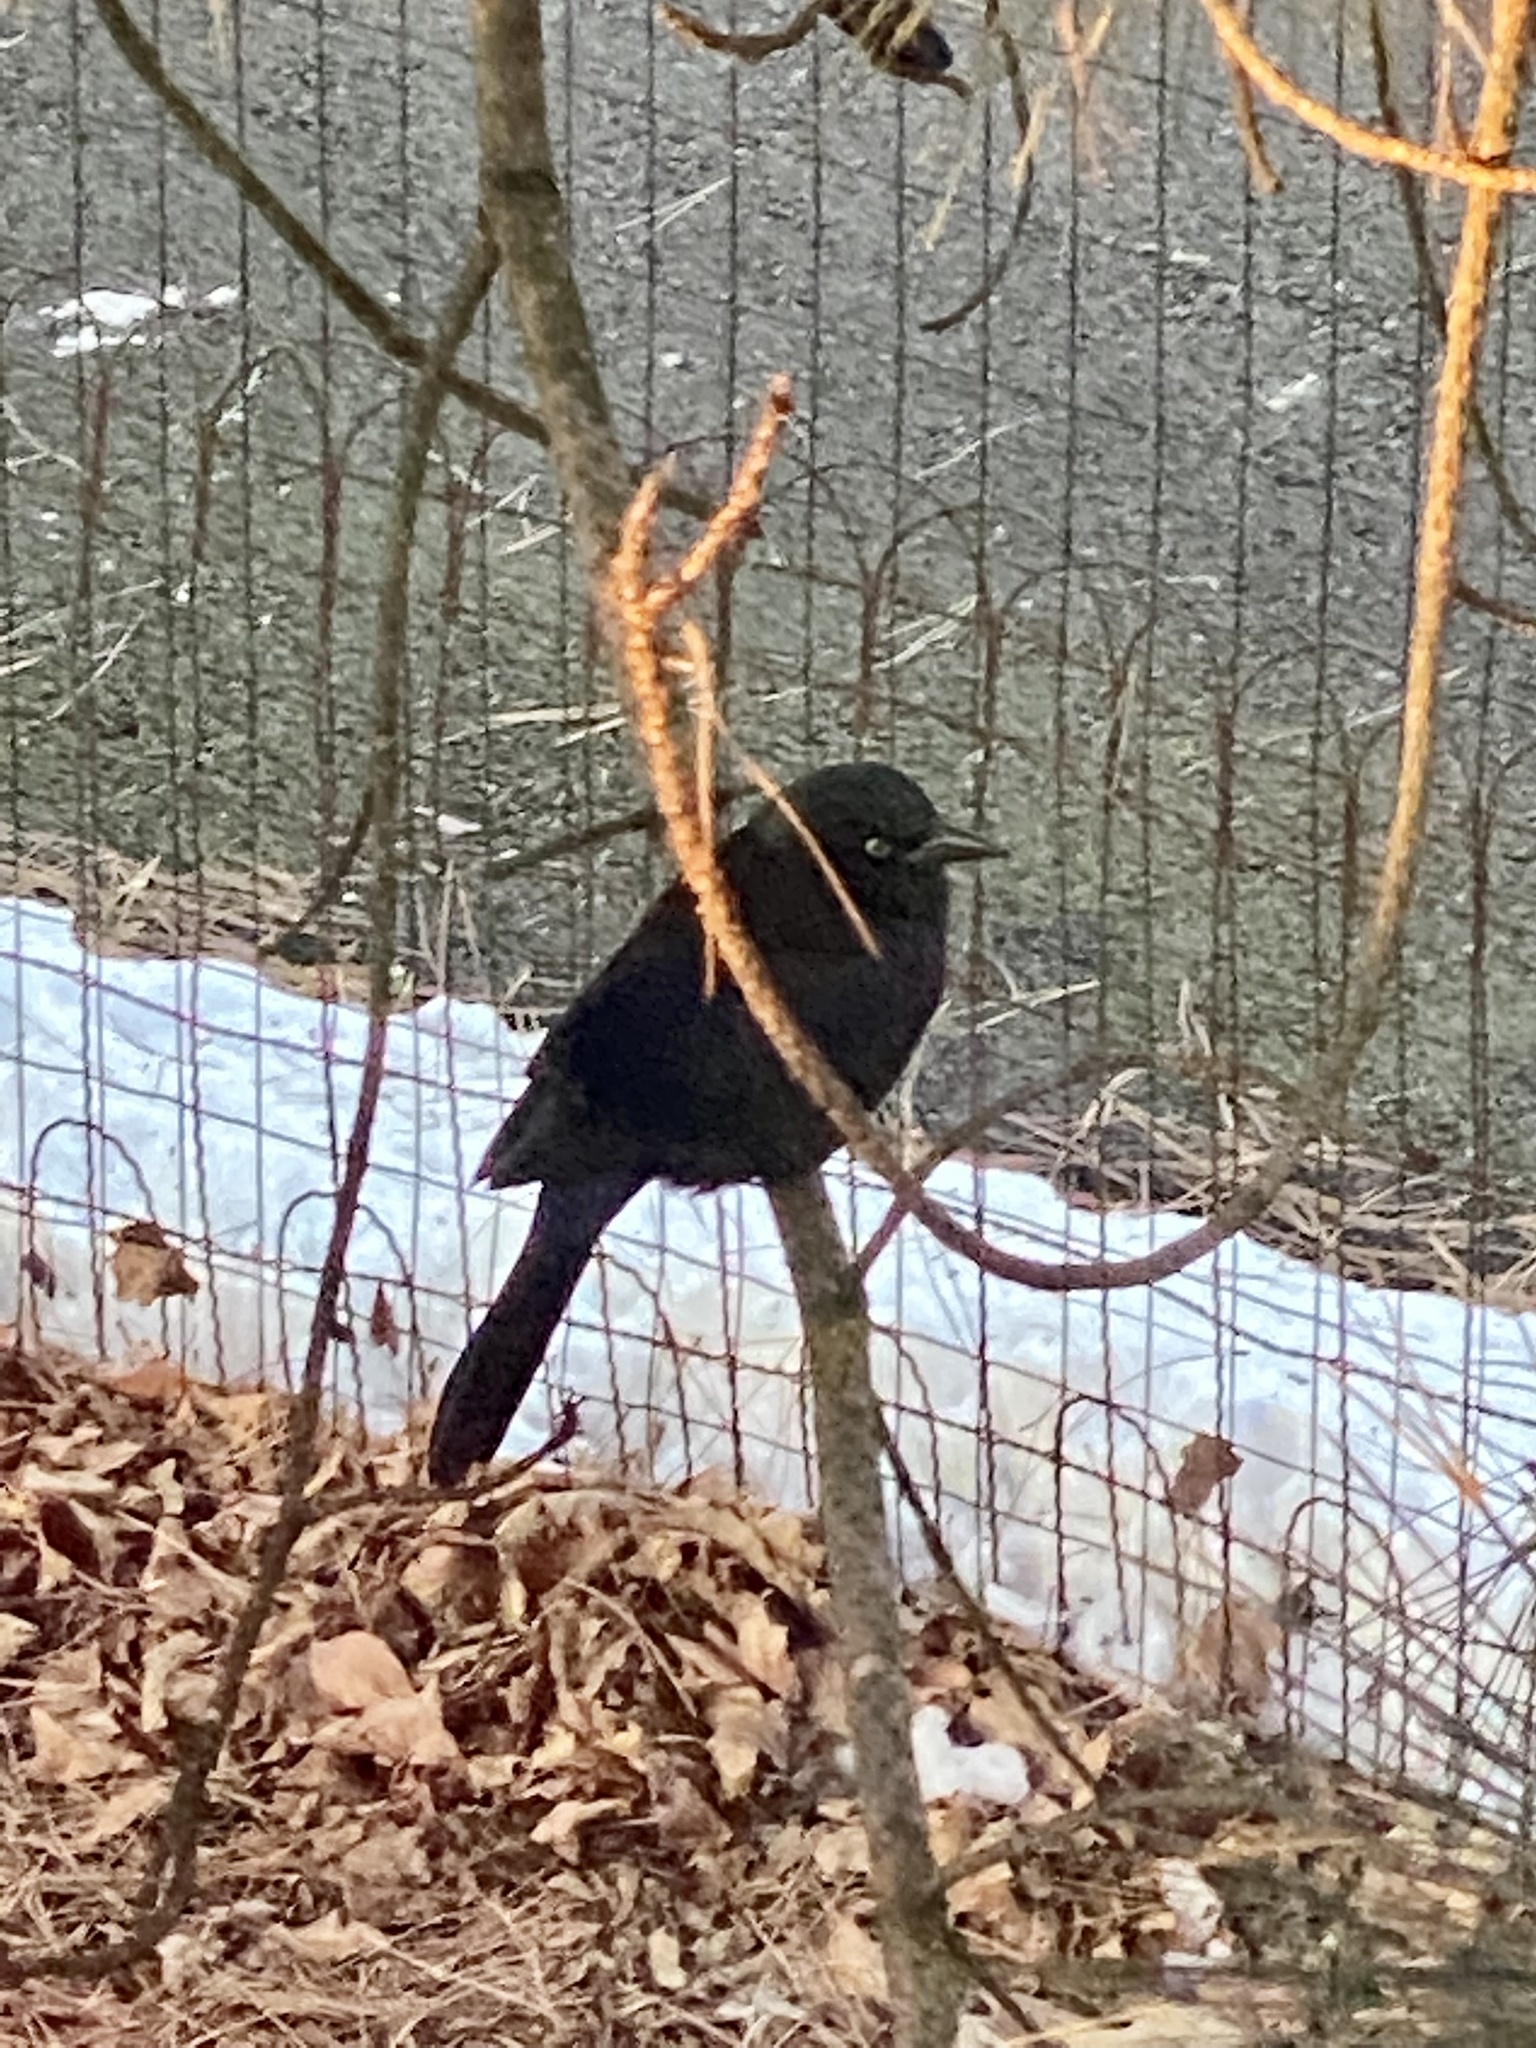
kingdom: Animalia
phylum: Chordata
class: Aves
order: Passeriformes
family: Icteridae
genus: Quiscalus
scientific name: Quiscalus quiscula
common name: Common grackle
